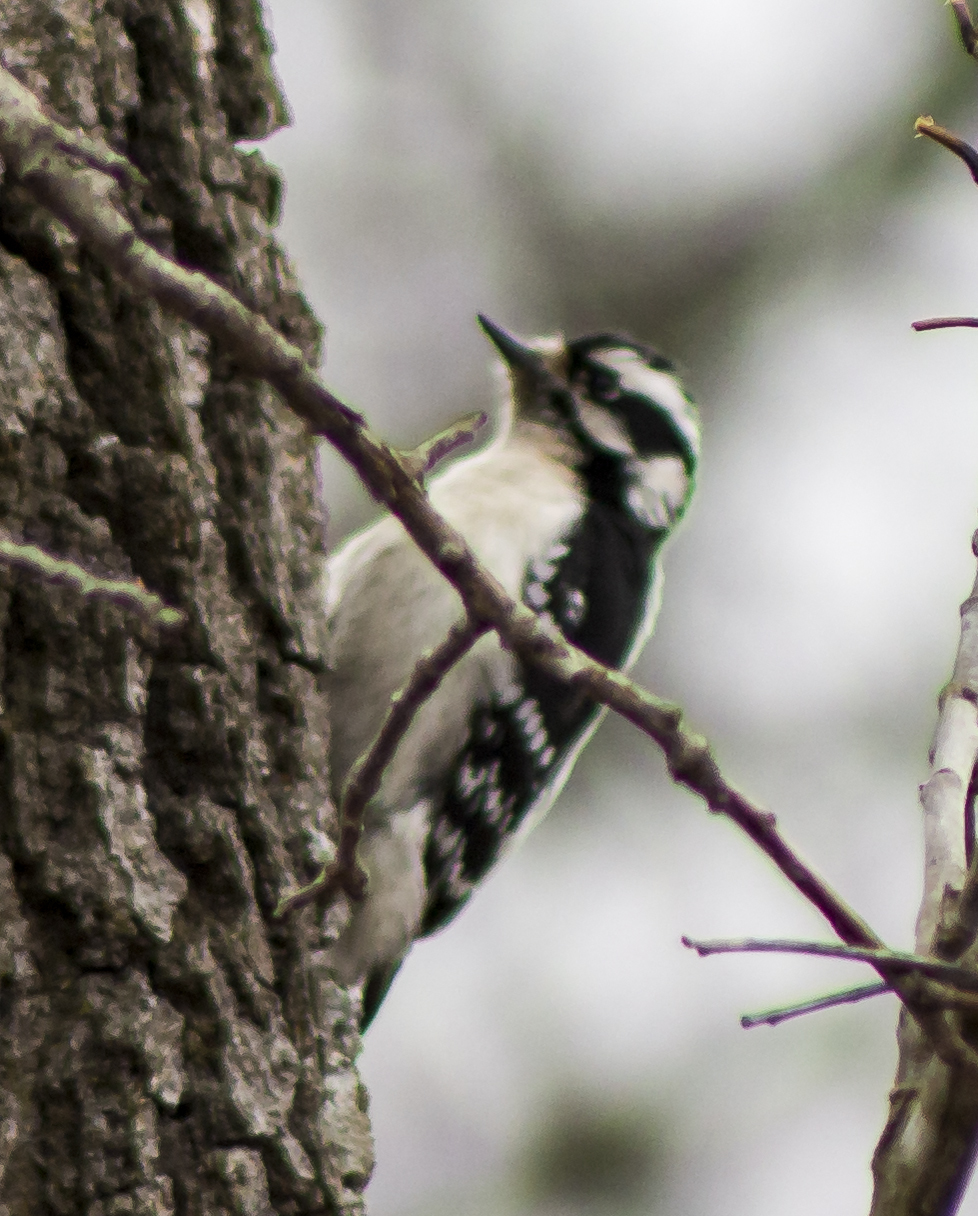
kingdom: Animalia
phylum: Chordata
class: Aves
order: Piciformes
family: Picidae
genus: Dryobates
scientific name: Dryobates pubescens
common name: Downy woodpecker
